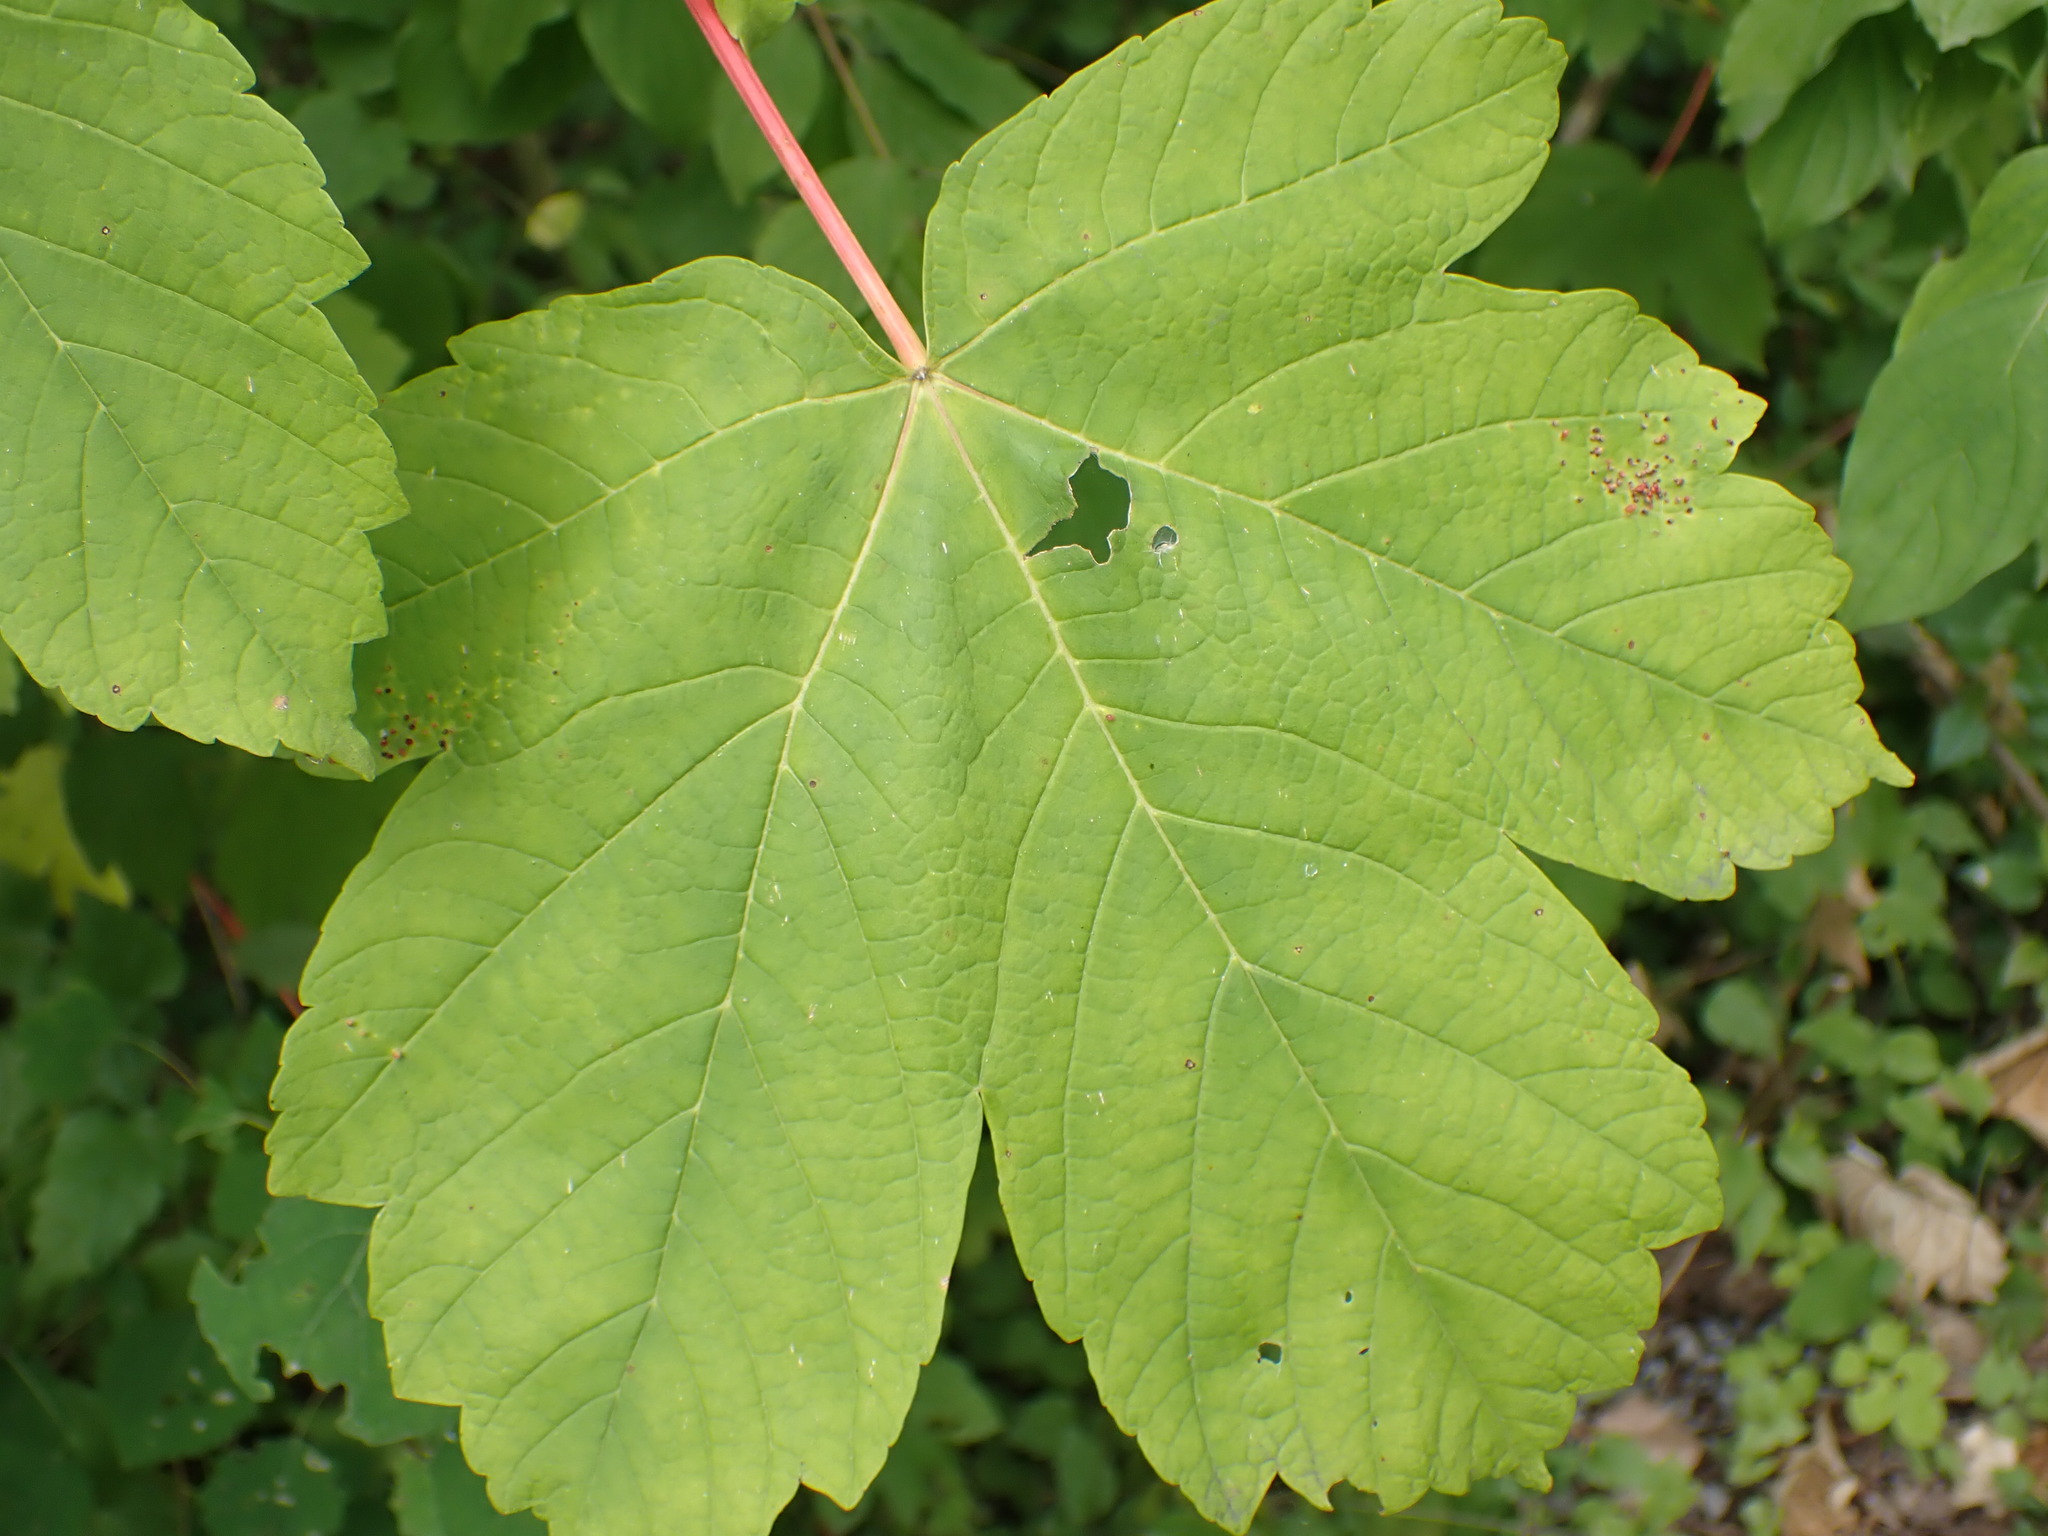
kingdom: Plantae
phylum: Tracheophyta
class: Magnoliopsida
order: Sapindales
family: Sapindaceae
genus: Acer
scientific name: Acer pseudoplatanus
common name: Sycamore
